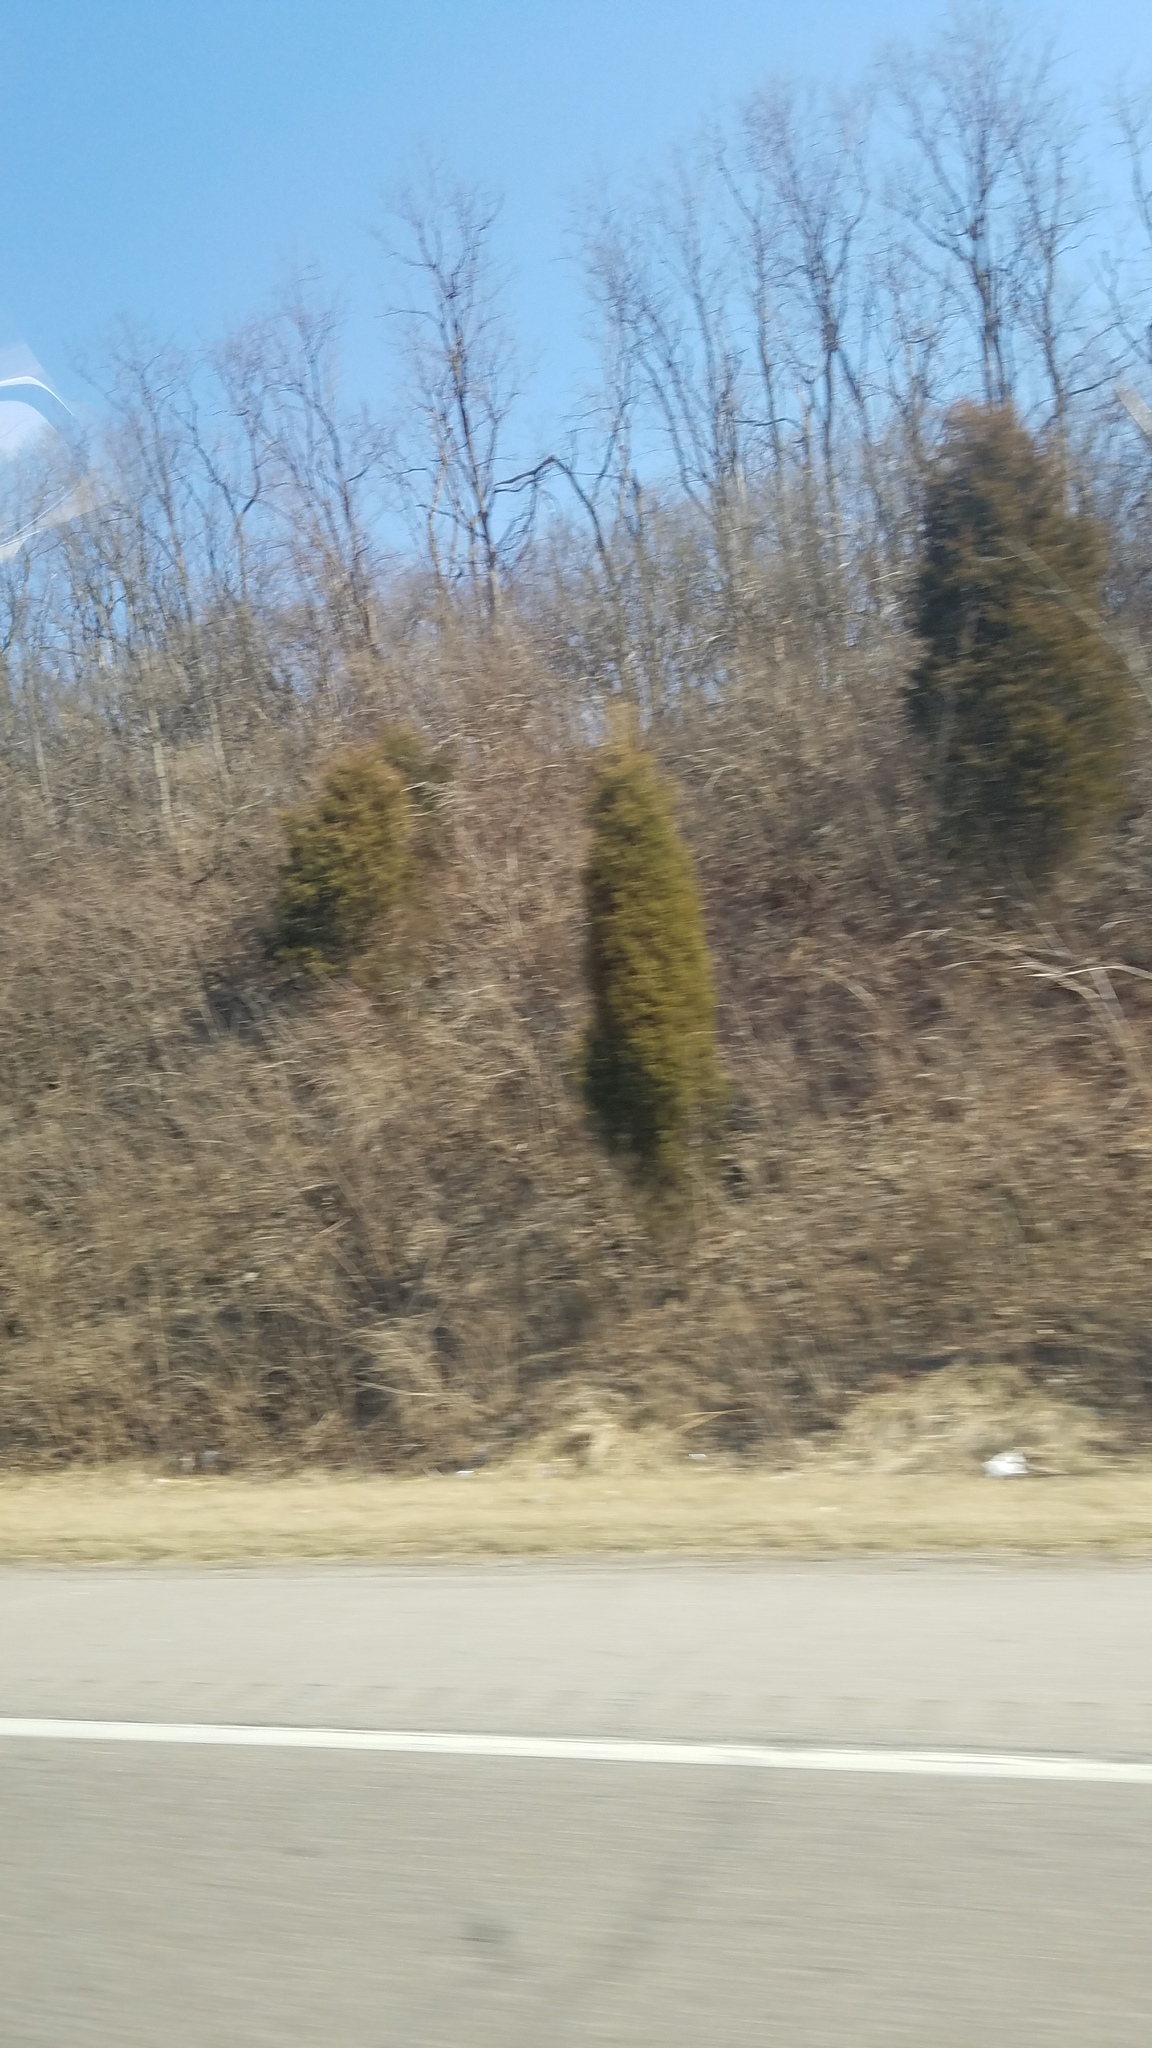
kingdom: Plantae
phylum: Tracheophyta
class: Pinopsida
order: Pinales
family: Cupressaceae
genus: Juniperus
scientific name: Juniperus virginiana
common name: Red juniper
